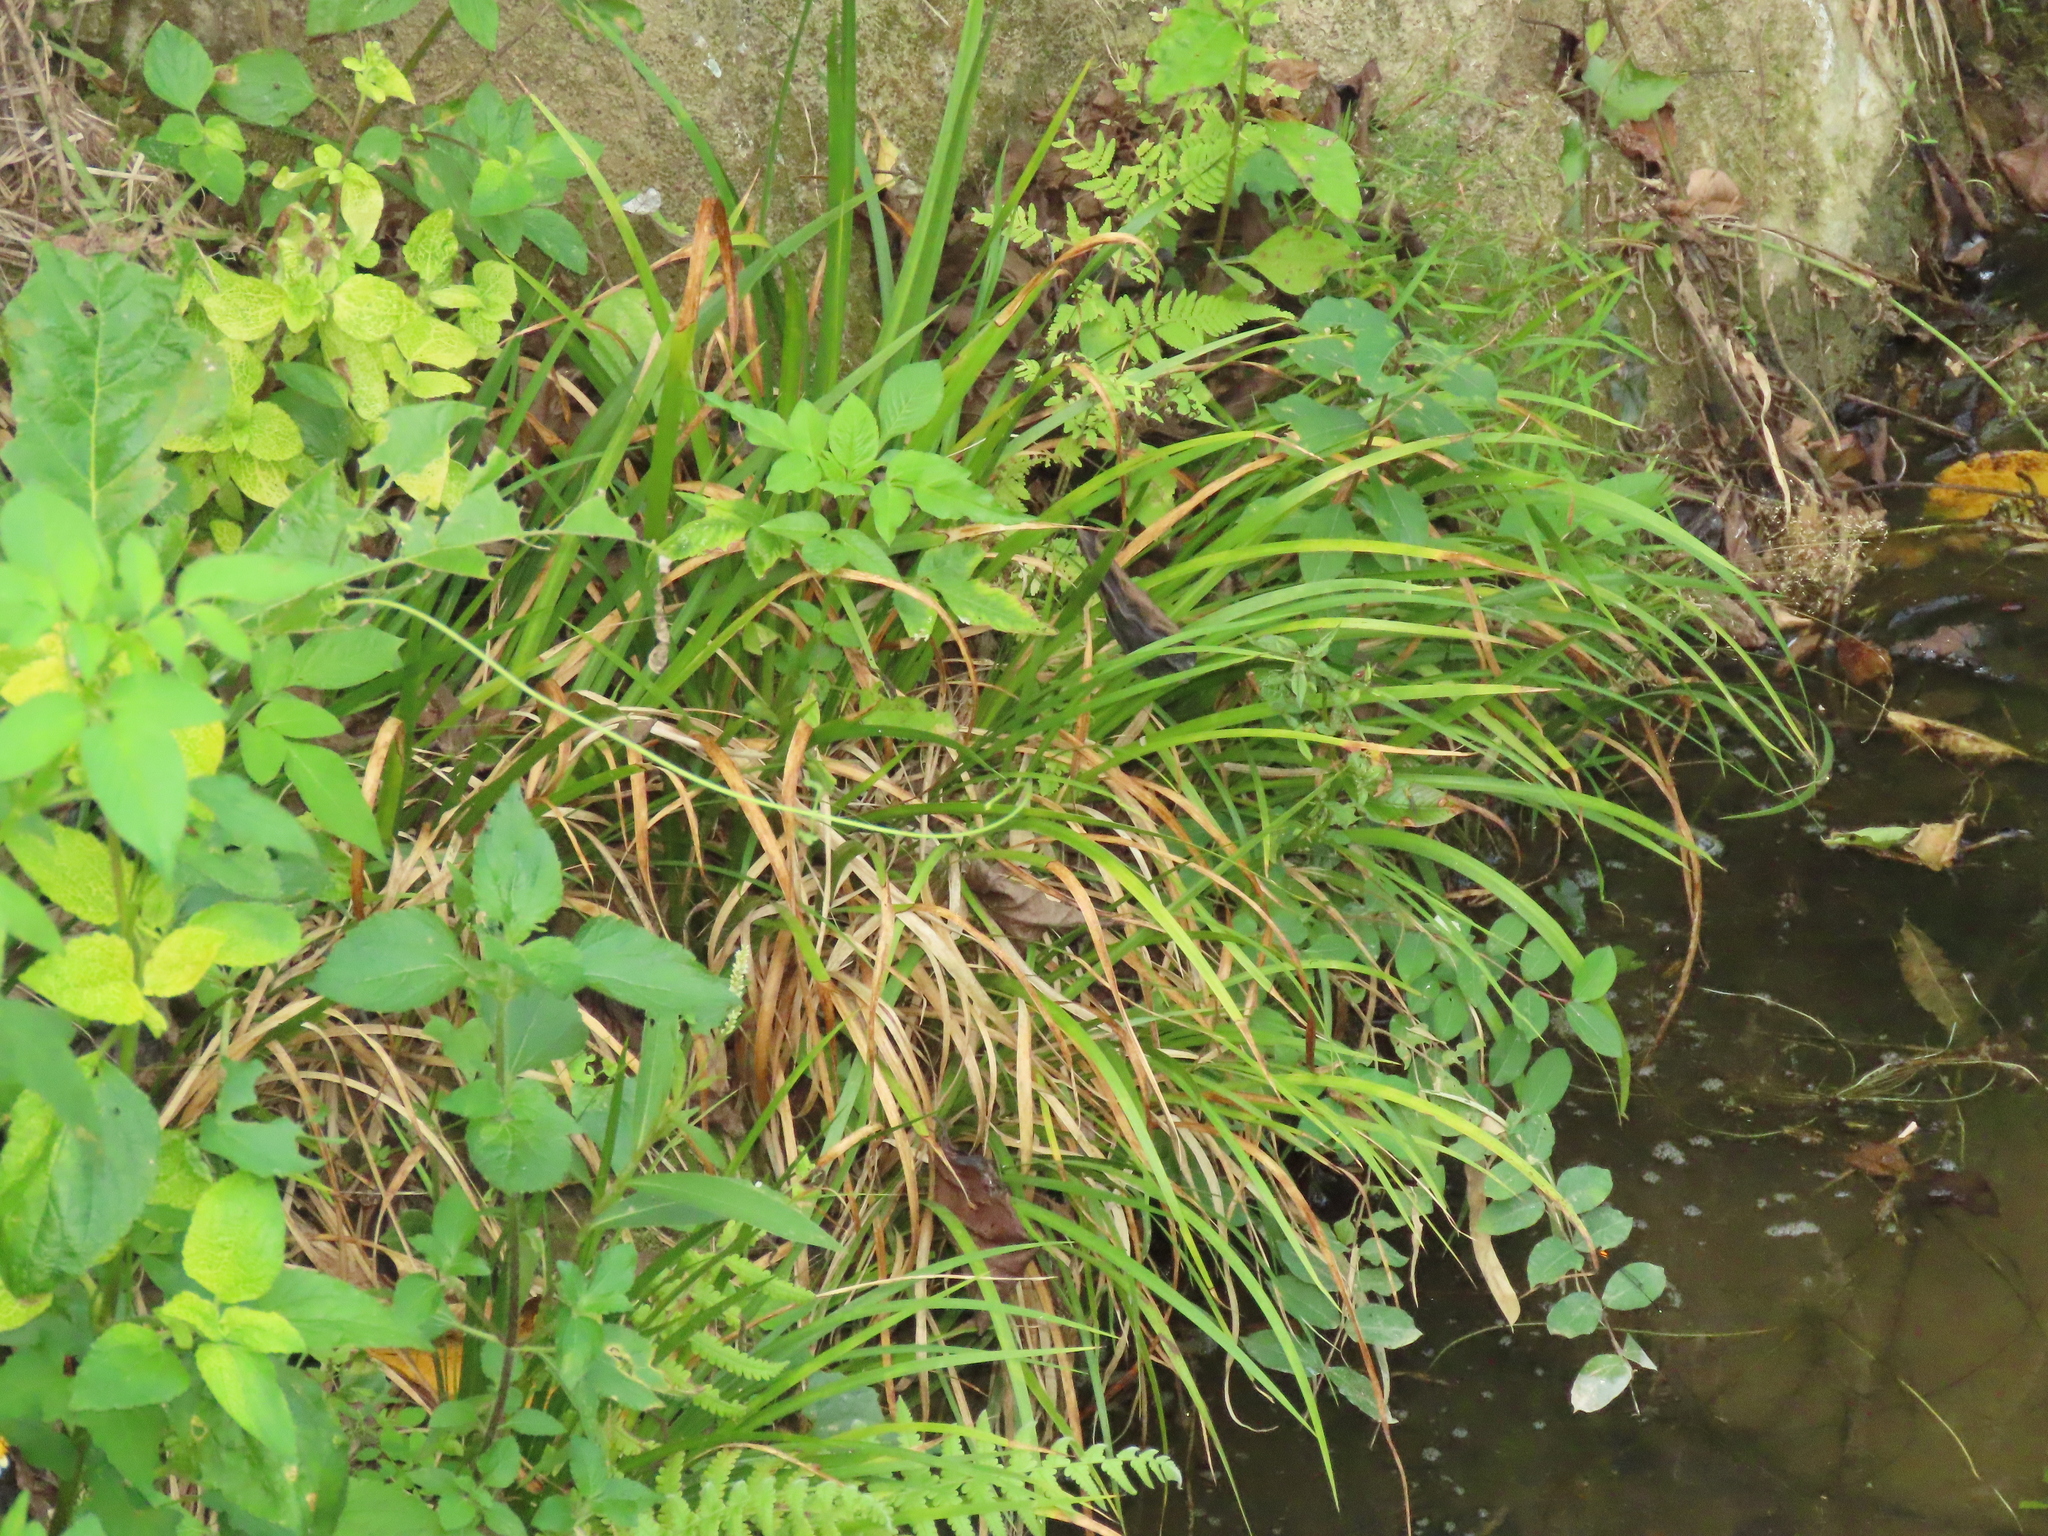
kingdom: Plantae
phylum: Tracheophyta
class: Liliopsida
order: Acorales
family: Acoraceae
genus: Acorus
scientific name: Acorus gramineus
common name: Slender sweet-flag
